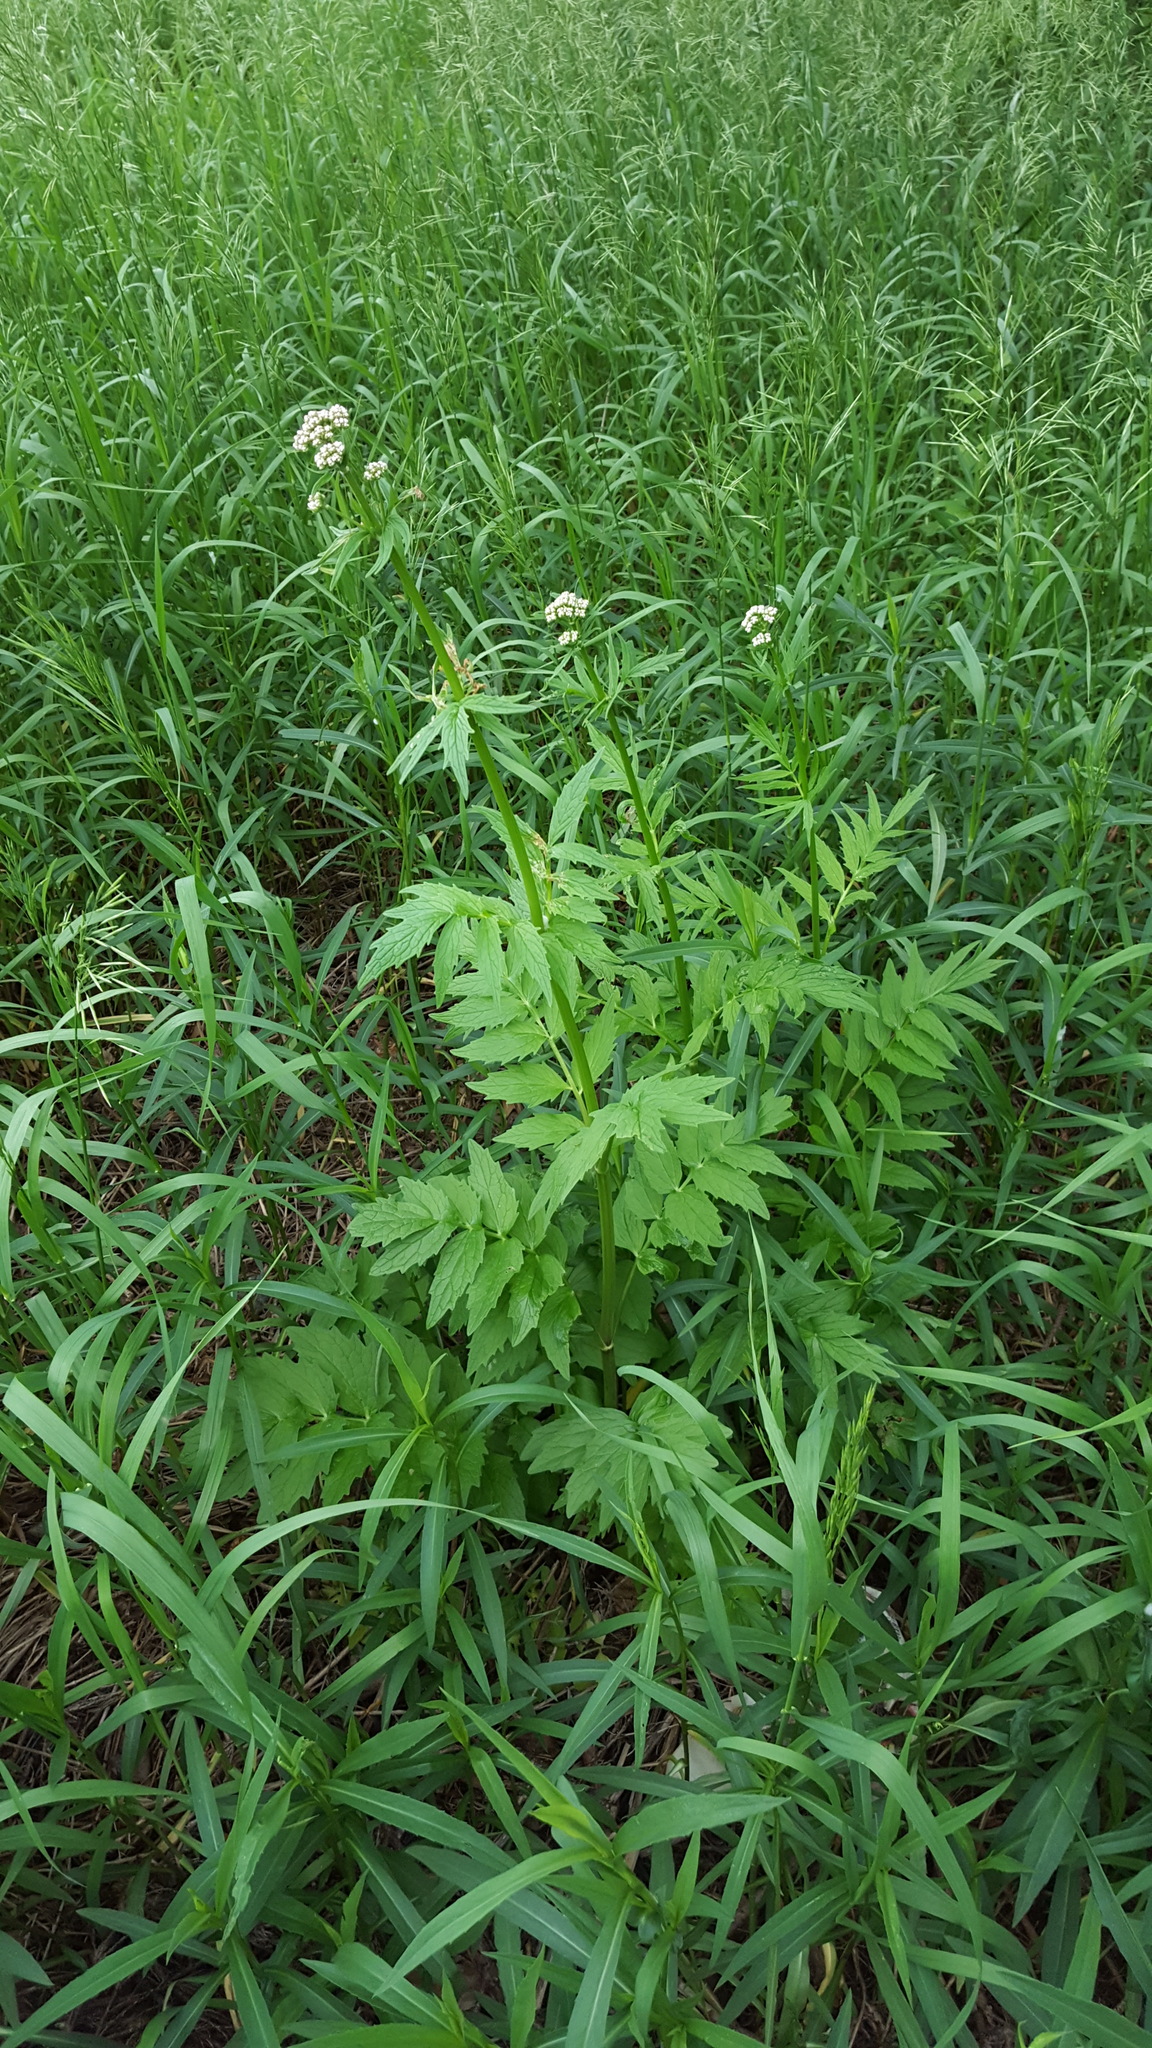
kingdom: Plantae
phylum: Tracheophyta
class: Magnoliopsida
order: Dipsacales
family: Caprifoliaceae
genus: Valeriana
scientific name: Valeriana officinalis
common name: Common valerian
